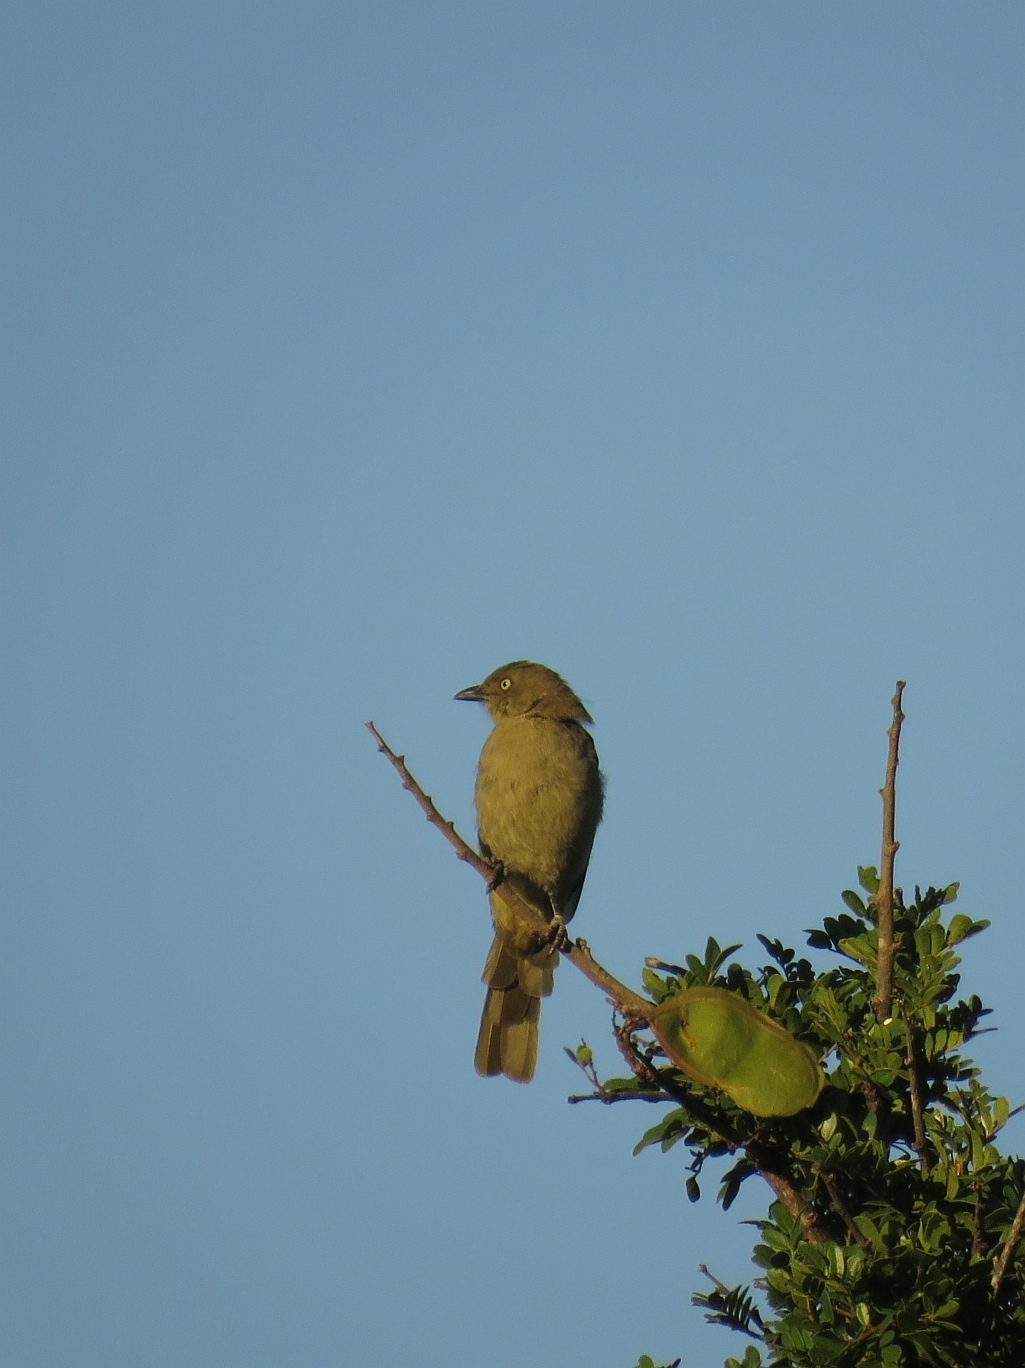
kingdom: Animalia
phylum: Chordata
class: Aves
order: Passeriformes
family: Pycnonotidae
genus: Andropadus
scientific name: Andropadus importunus
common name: Sombre greenbul
